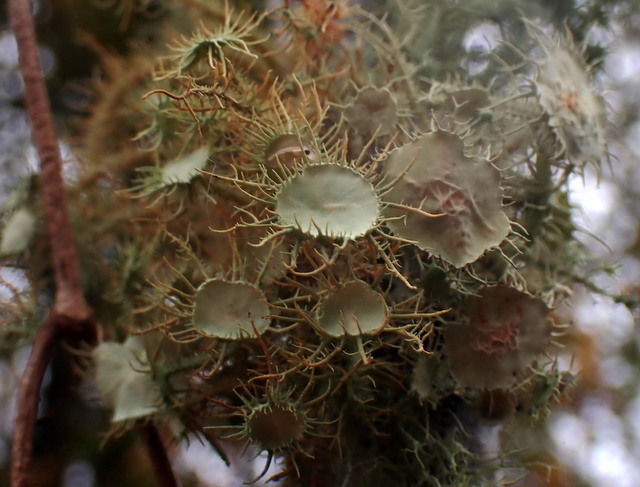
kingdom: Fungi
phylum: Ascomycota
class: Lecanoromycetes
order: Lecanorales
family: Parmeliaceae
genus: Usnea
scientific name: Usnea strigosa
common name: Bushy beard lichen
